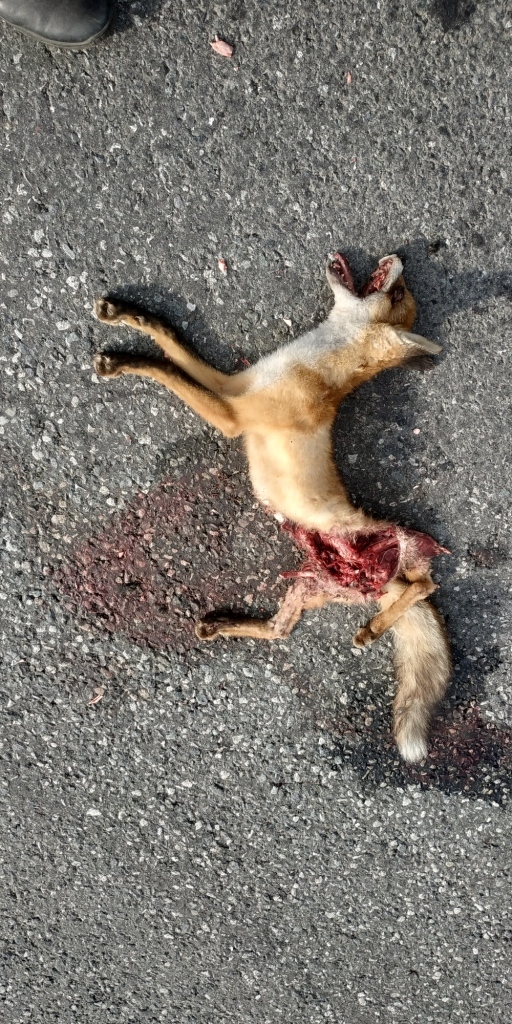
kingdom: Animalia
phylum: Chordata
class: Mammalia
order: Carnivora
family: Canidae
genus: Vulpes
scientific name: Vulpes vulpes
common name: Red fox
